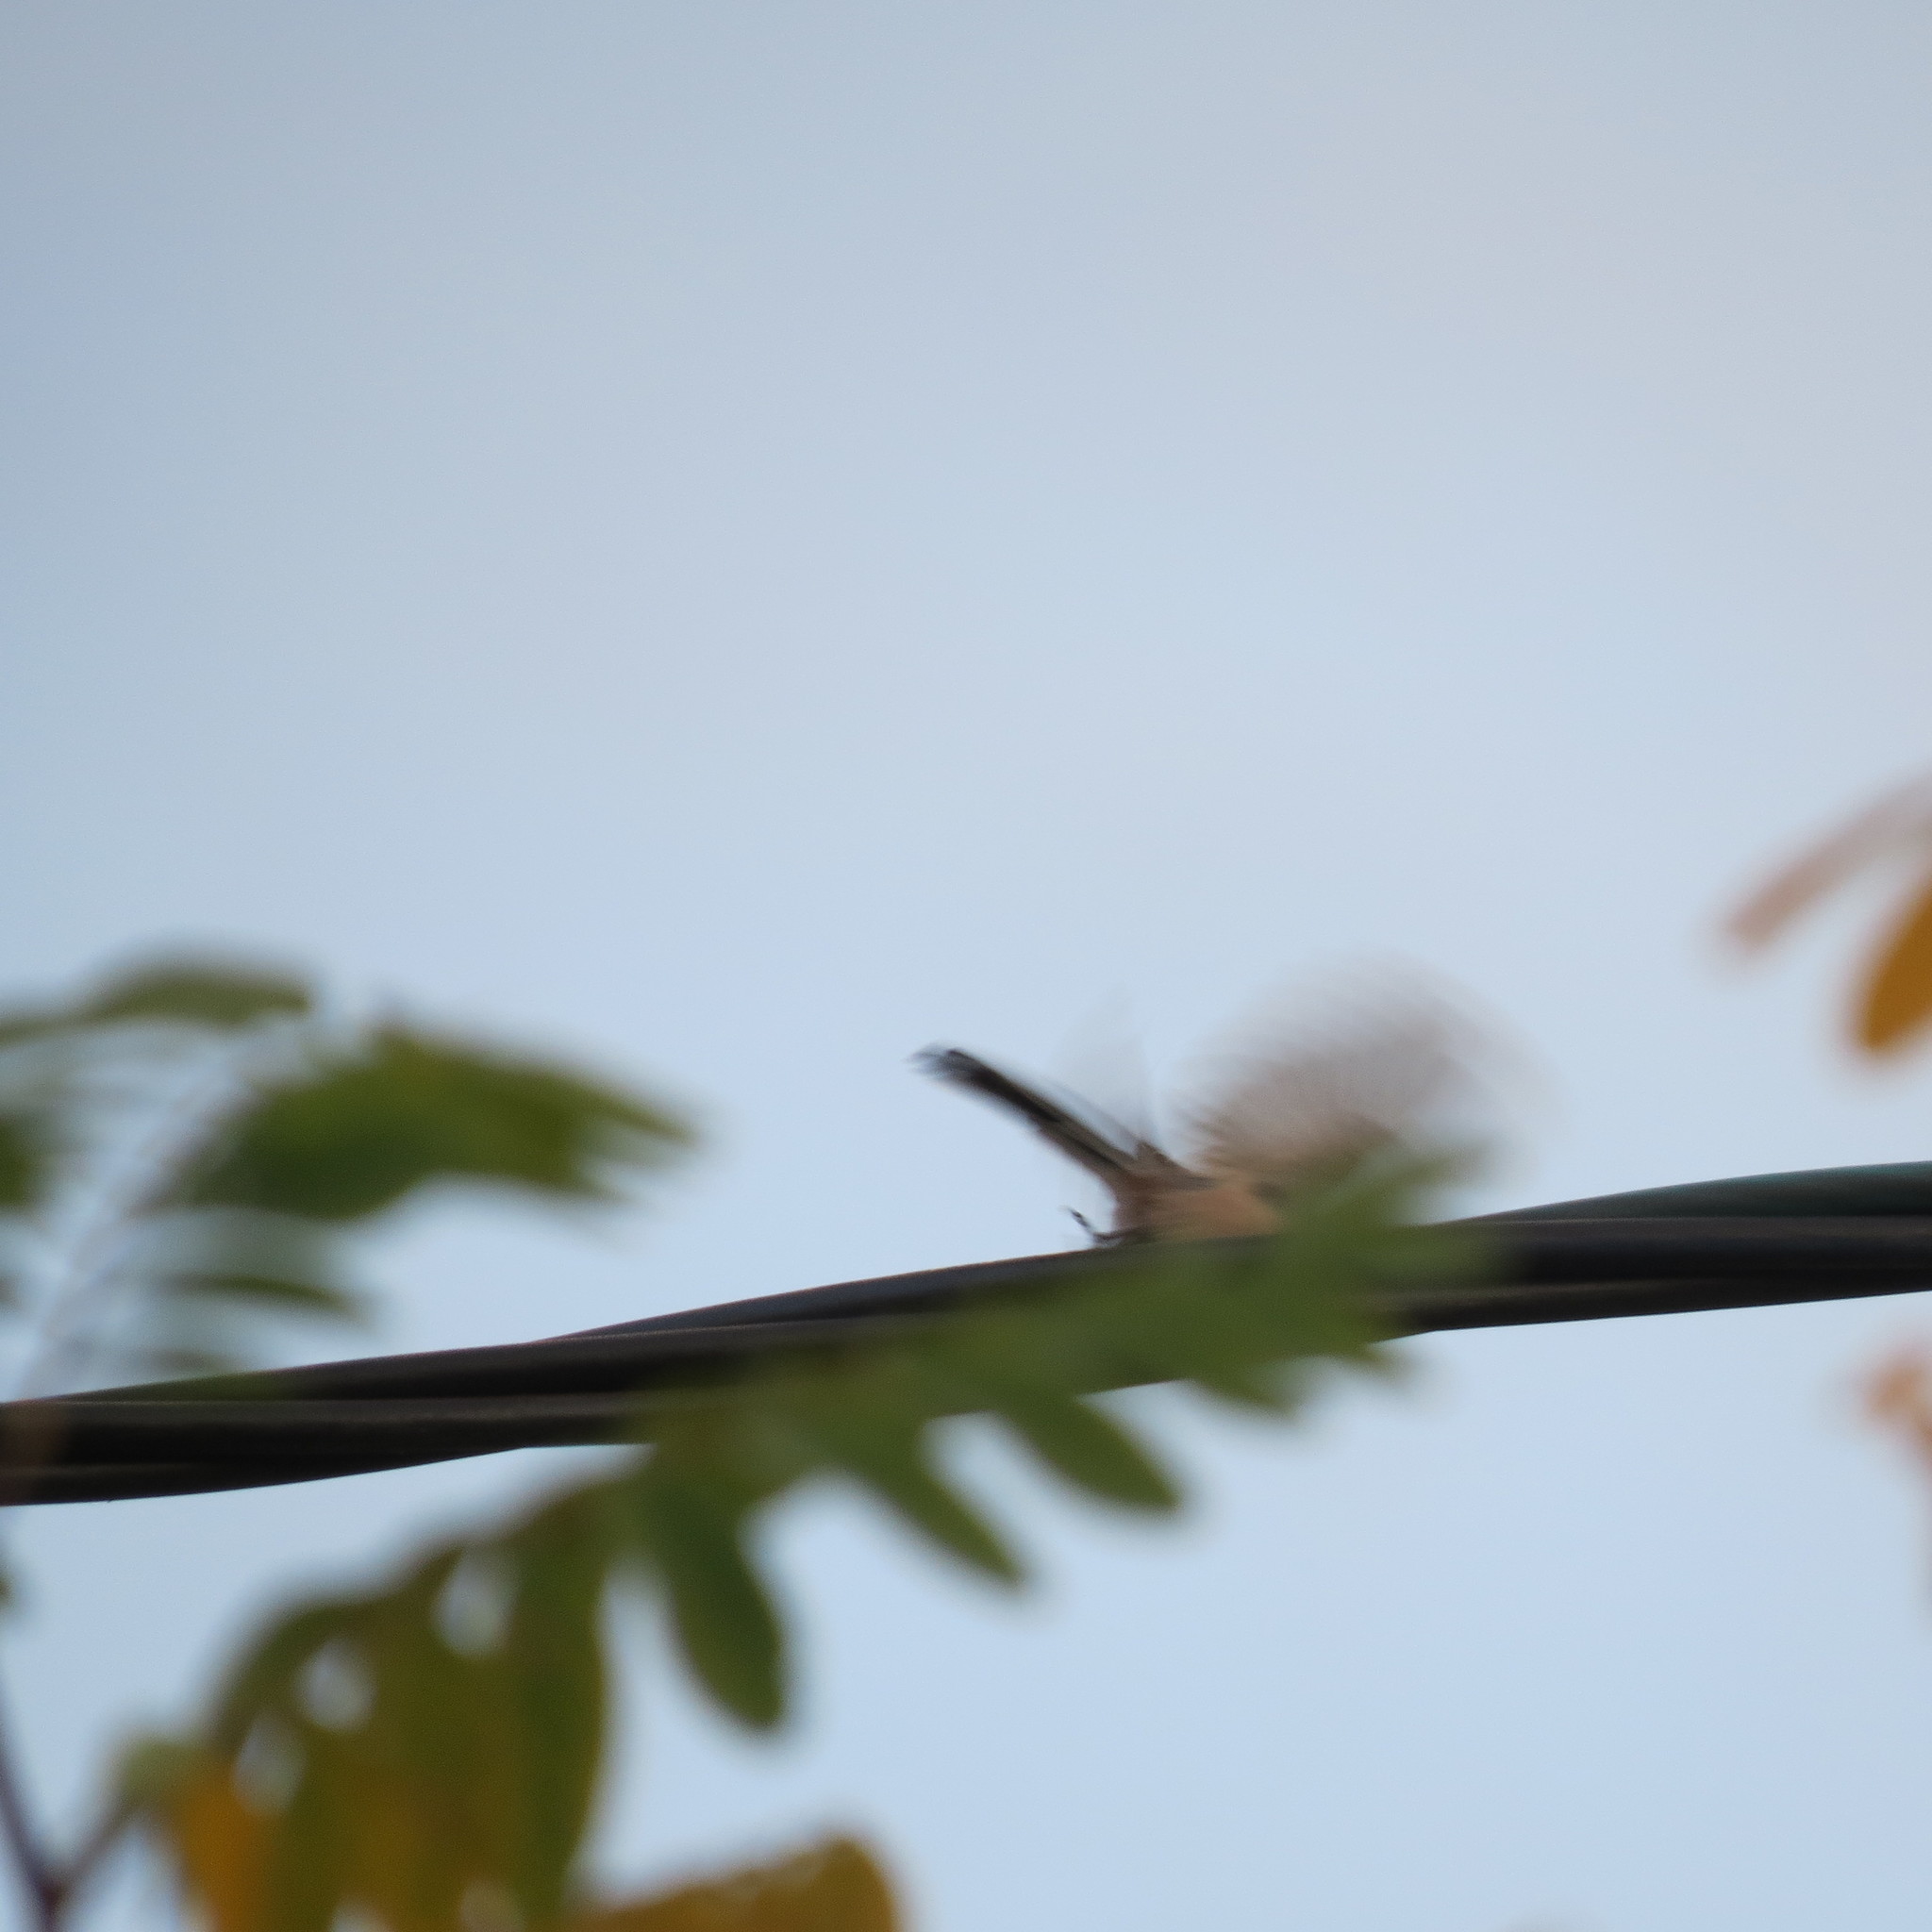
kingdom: Animalia
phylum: Chordata
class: Aves
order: Passeriformes
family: Aegithalidae
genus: Aegithalos
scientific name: Aegithalos caudatus
